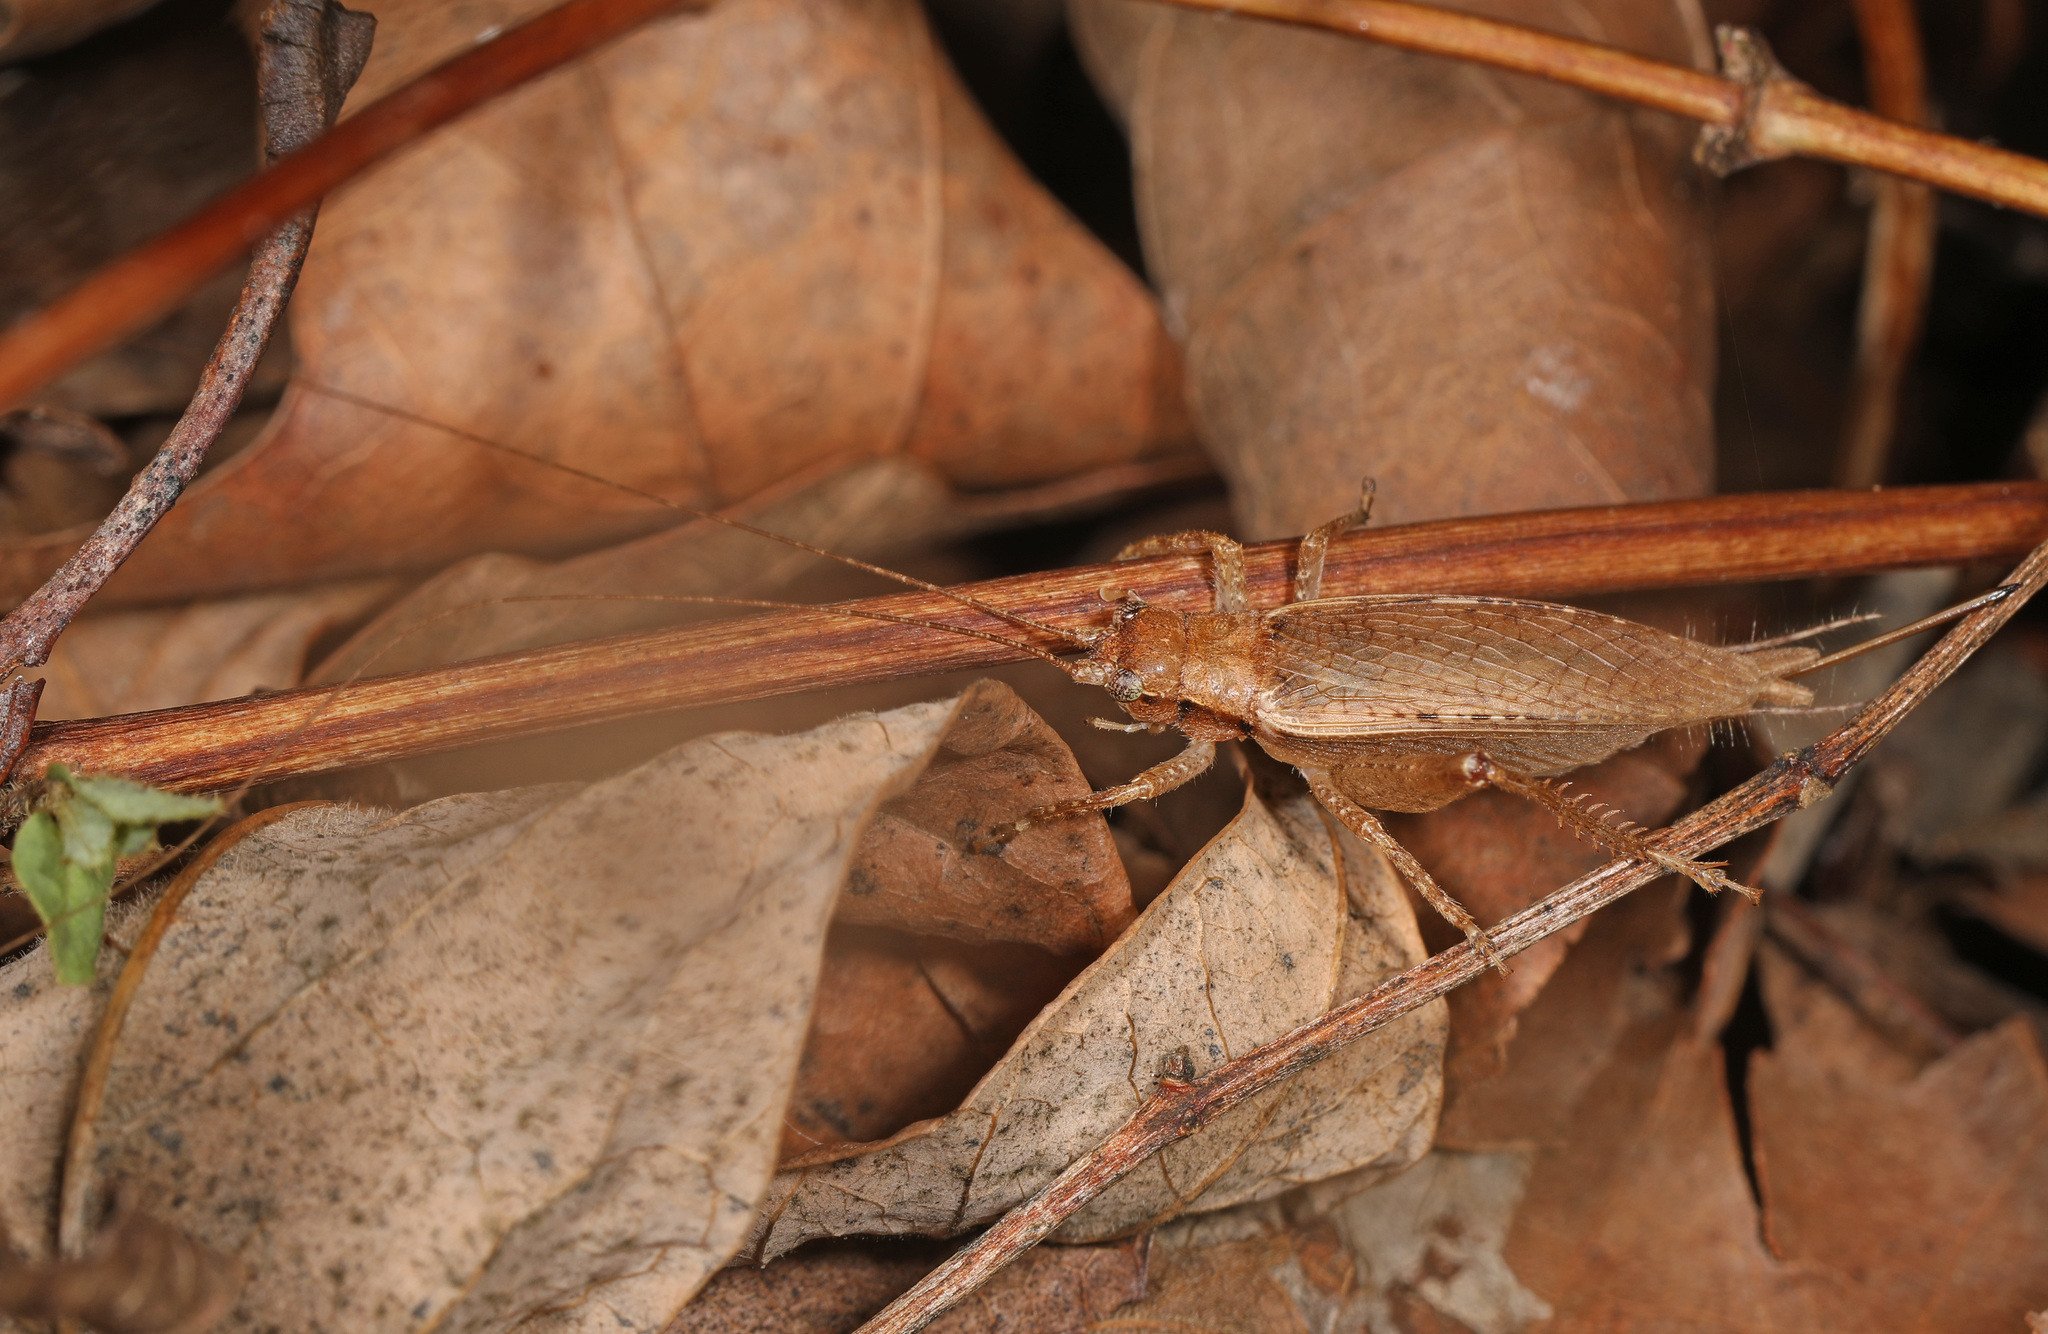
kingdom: Animalia
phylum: Arthropoda
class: Insecta
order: Orthoptera
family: Gryllidae
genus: Hapithus
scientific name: Hapithus saltator
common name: Jumping bush cricket
